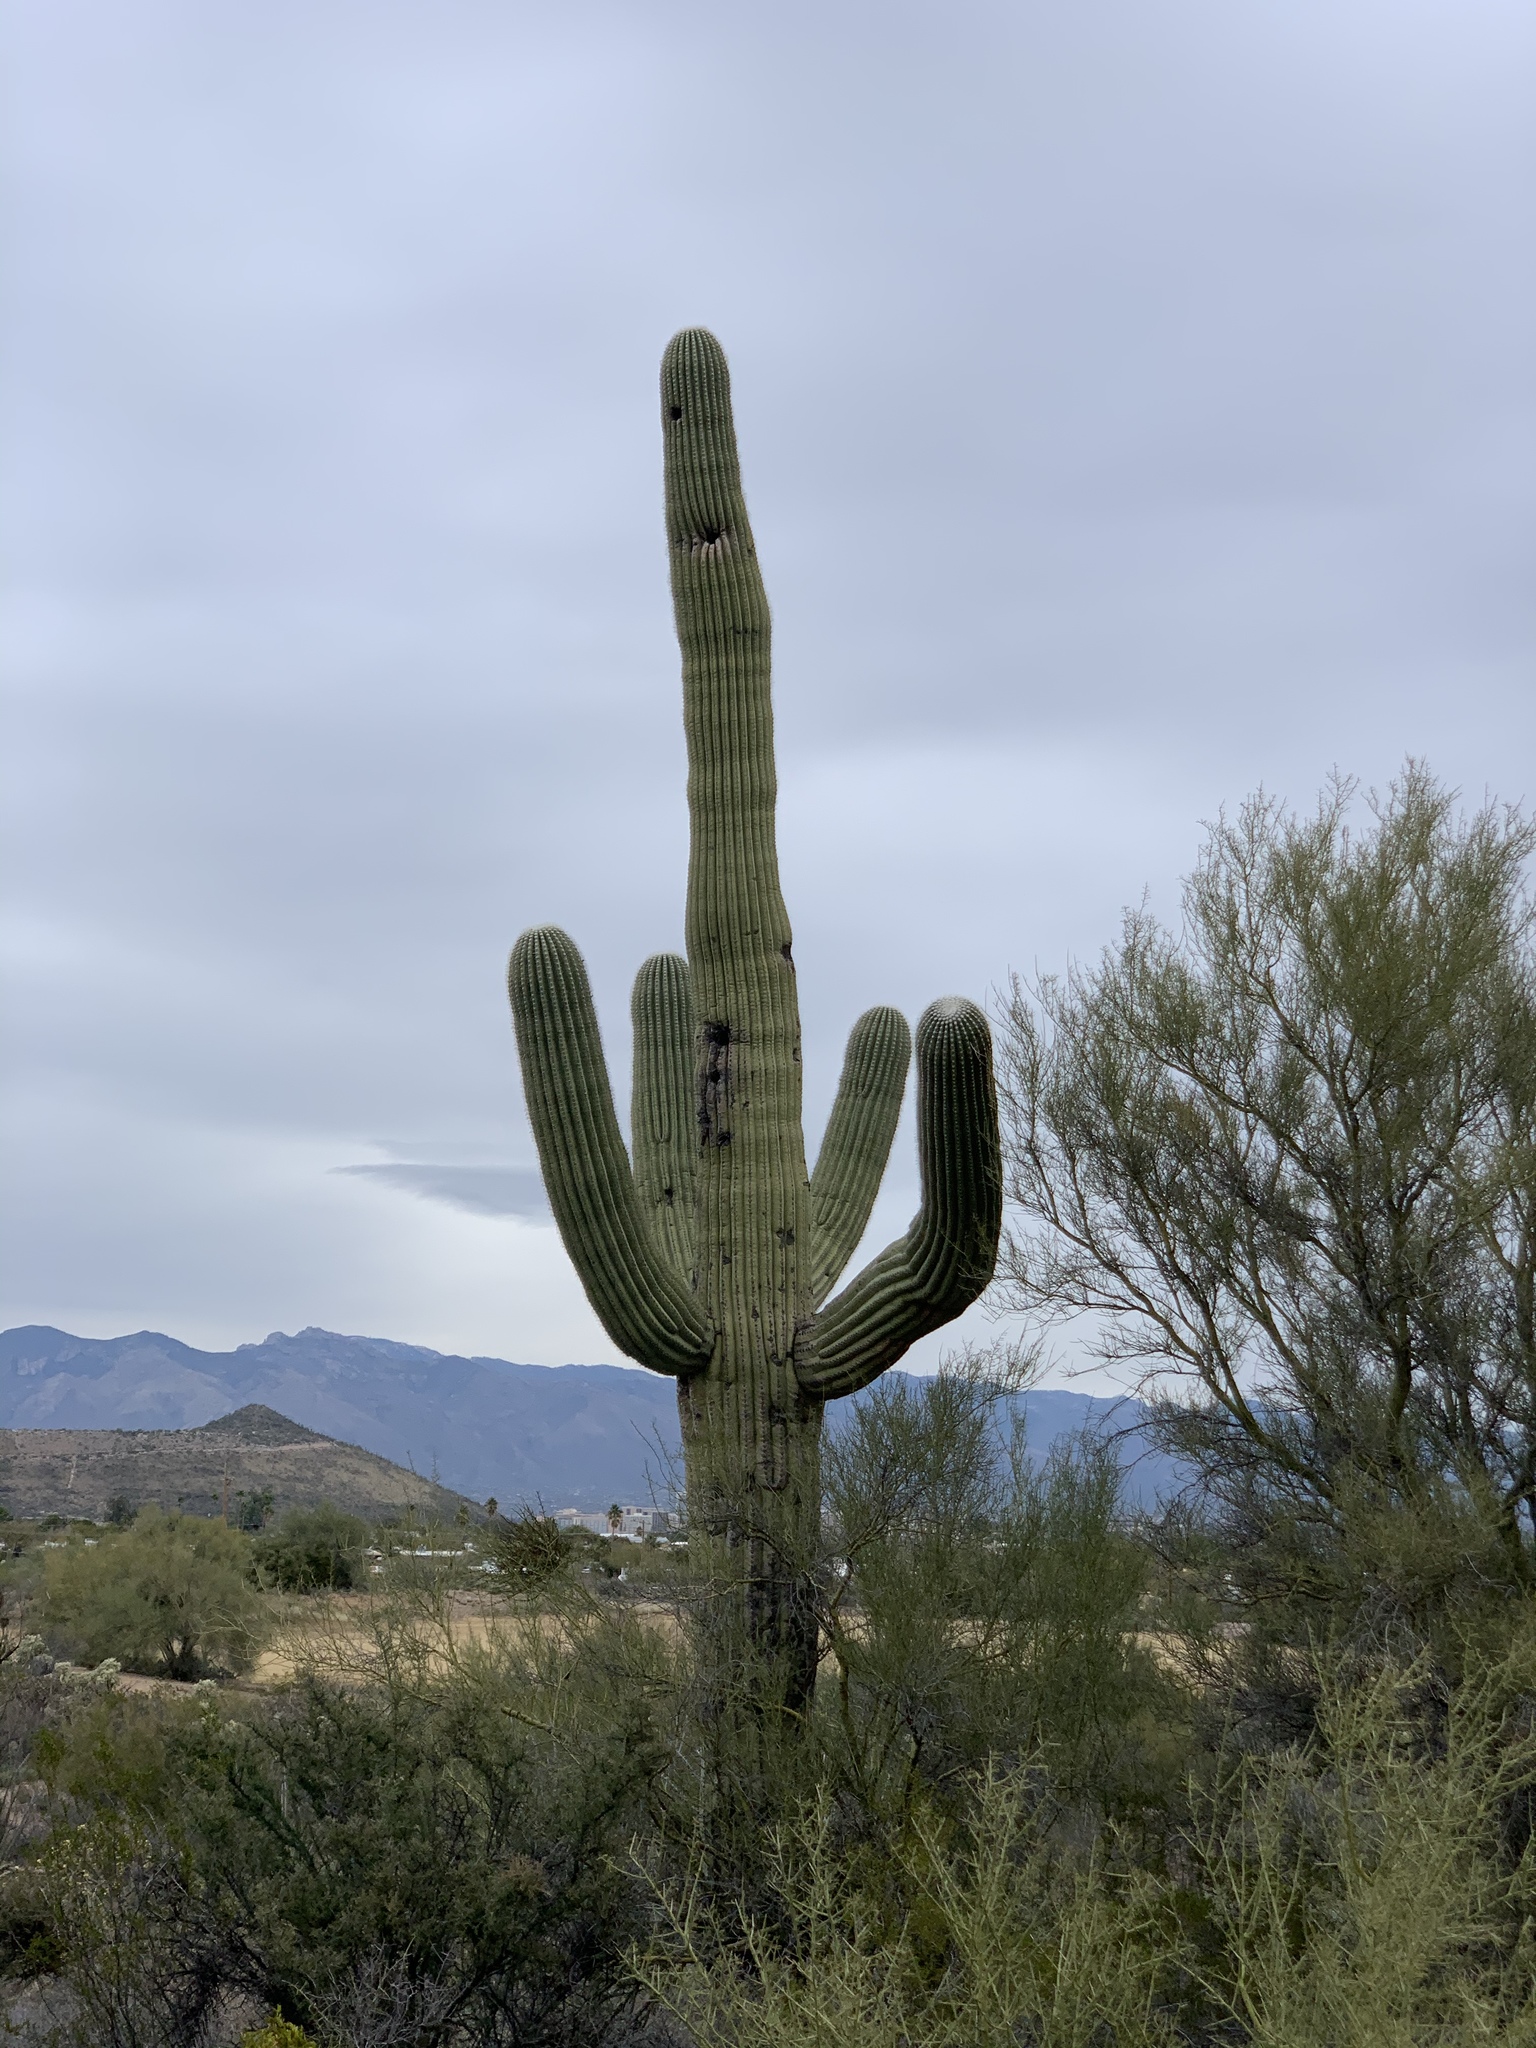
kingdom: Plantae
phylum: Tracheophyta
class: Magnoliopsida
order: Caryophyllales
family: Cactaceae
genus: Carnegiea
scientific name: Carnegiea gigantea
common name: Saguaro
